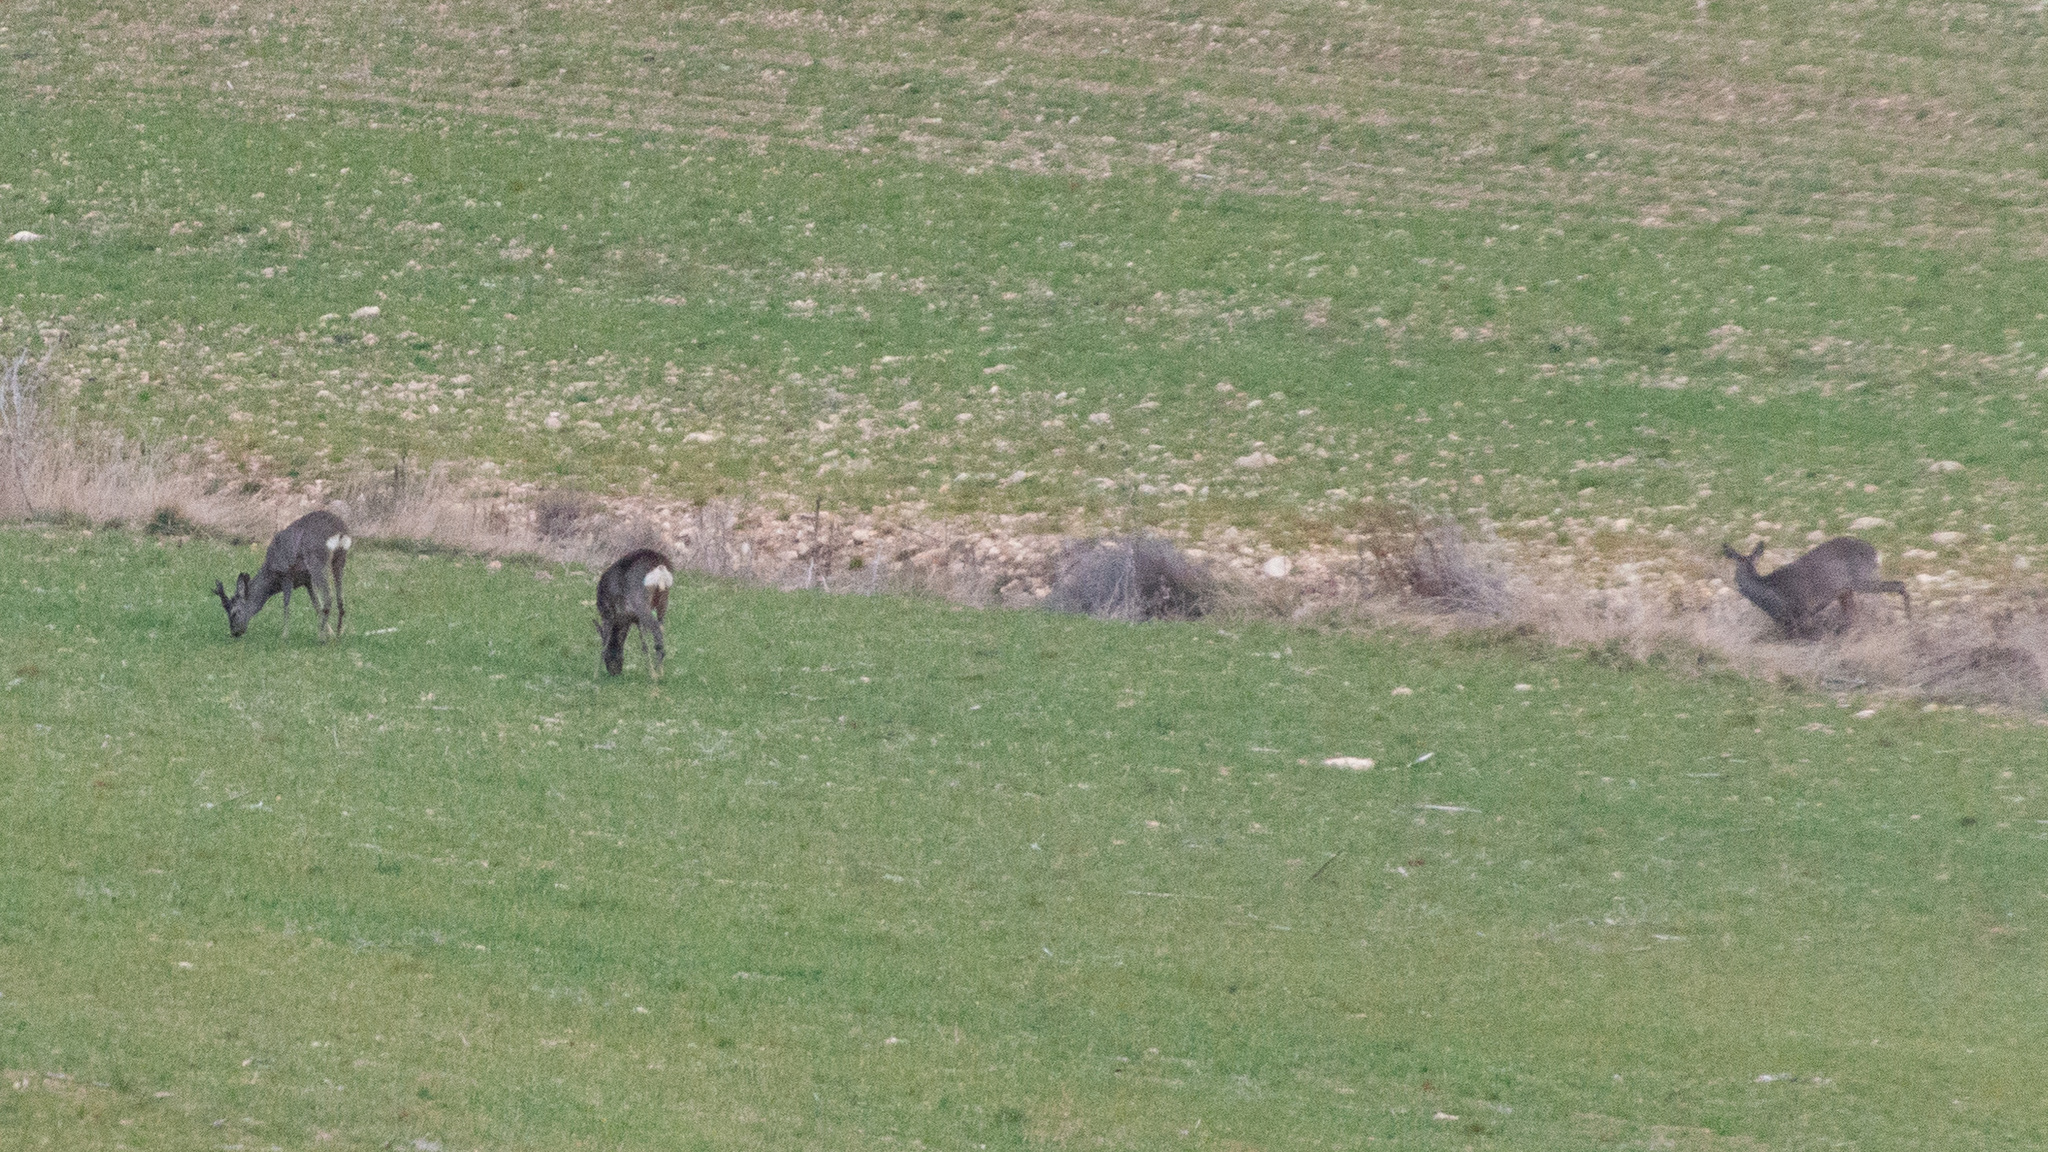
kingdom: Animalia
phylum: Chordata
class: Mammalia
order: Artiodactyla
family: Cervidae
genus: Capreolus
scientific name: Capreolus capreolus
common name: Western roe deer
